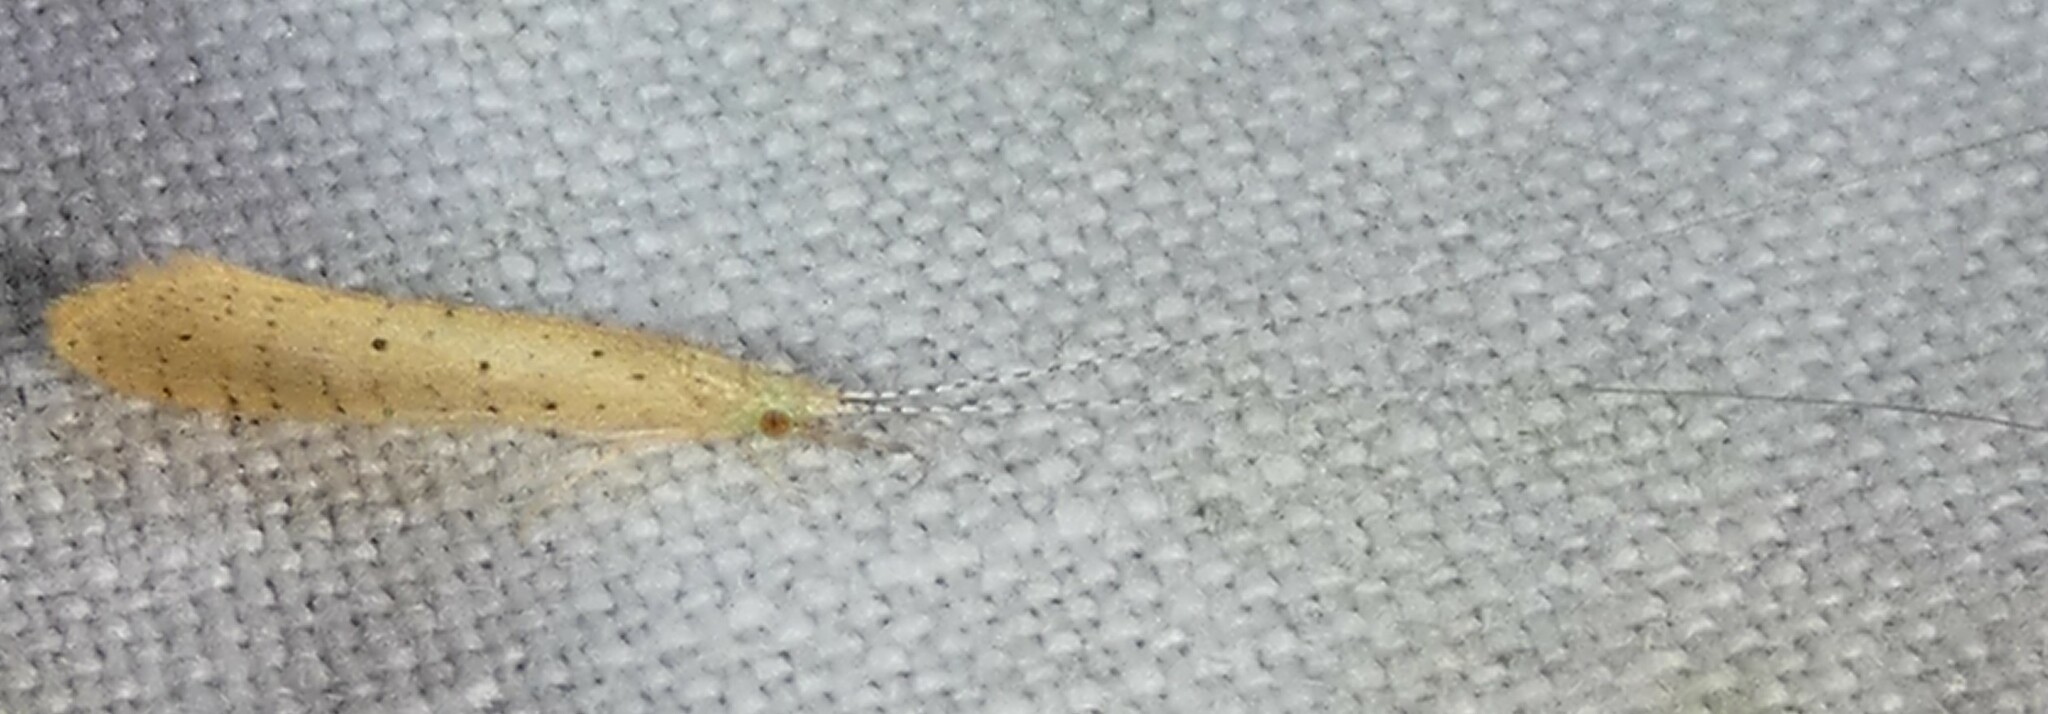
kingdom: Animalia
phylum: Arthropoda
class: Insecta
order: Trichoptera
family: Leptoceridae
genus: Nectopsyche
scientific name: Nectopsyche pavida
